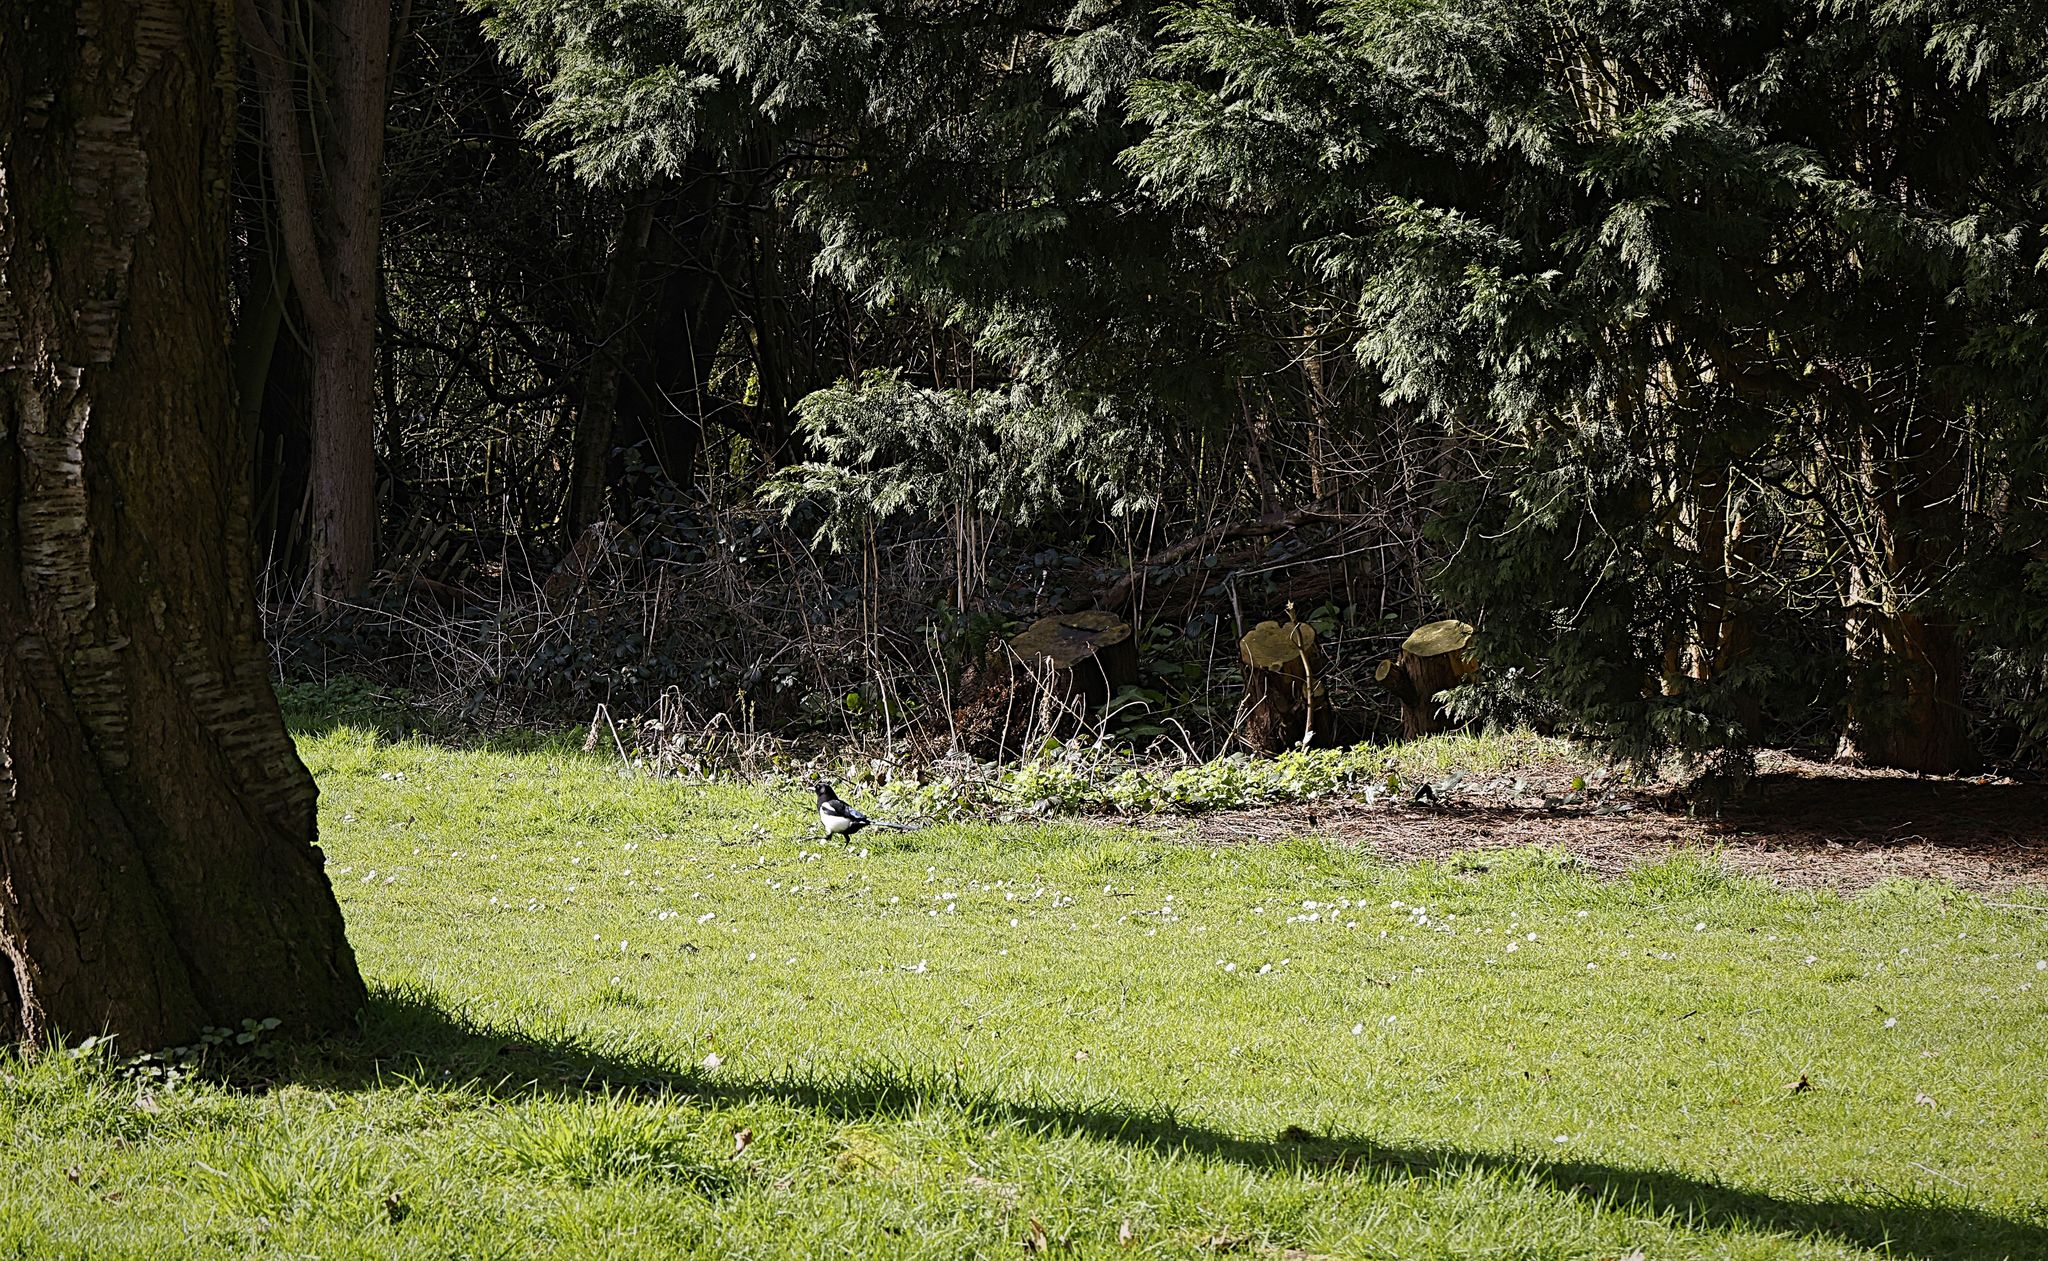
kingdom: Animalia
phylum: Chordata
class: Aves
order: Passeriformes
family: Corvidae
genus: Pica
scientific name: Pica pica
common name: Eurasian magpie
